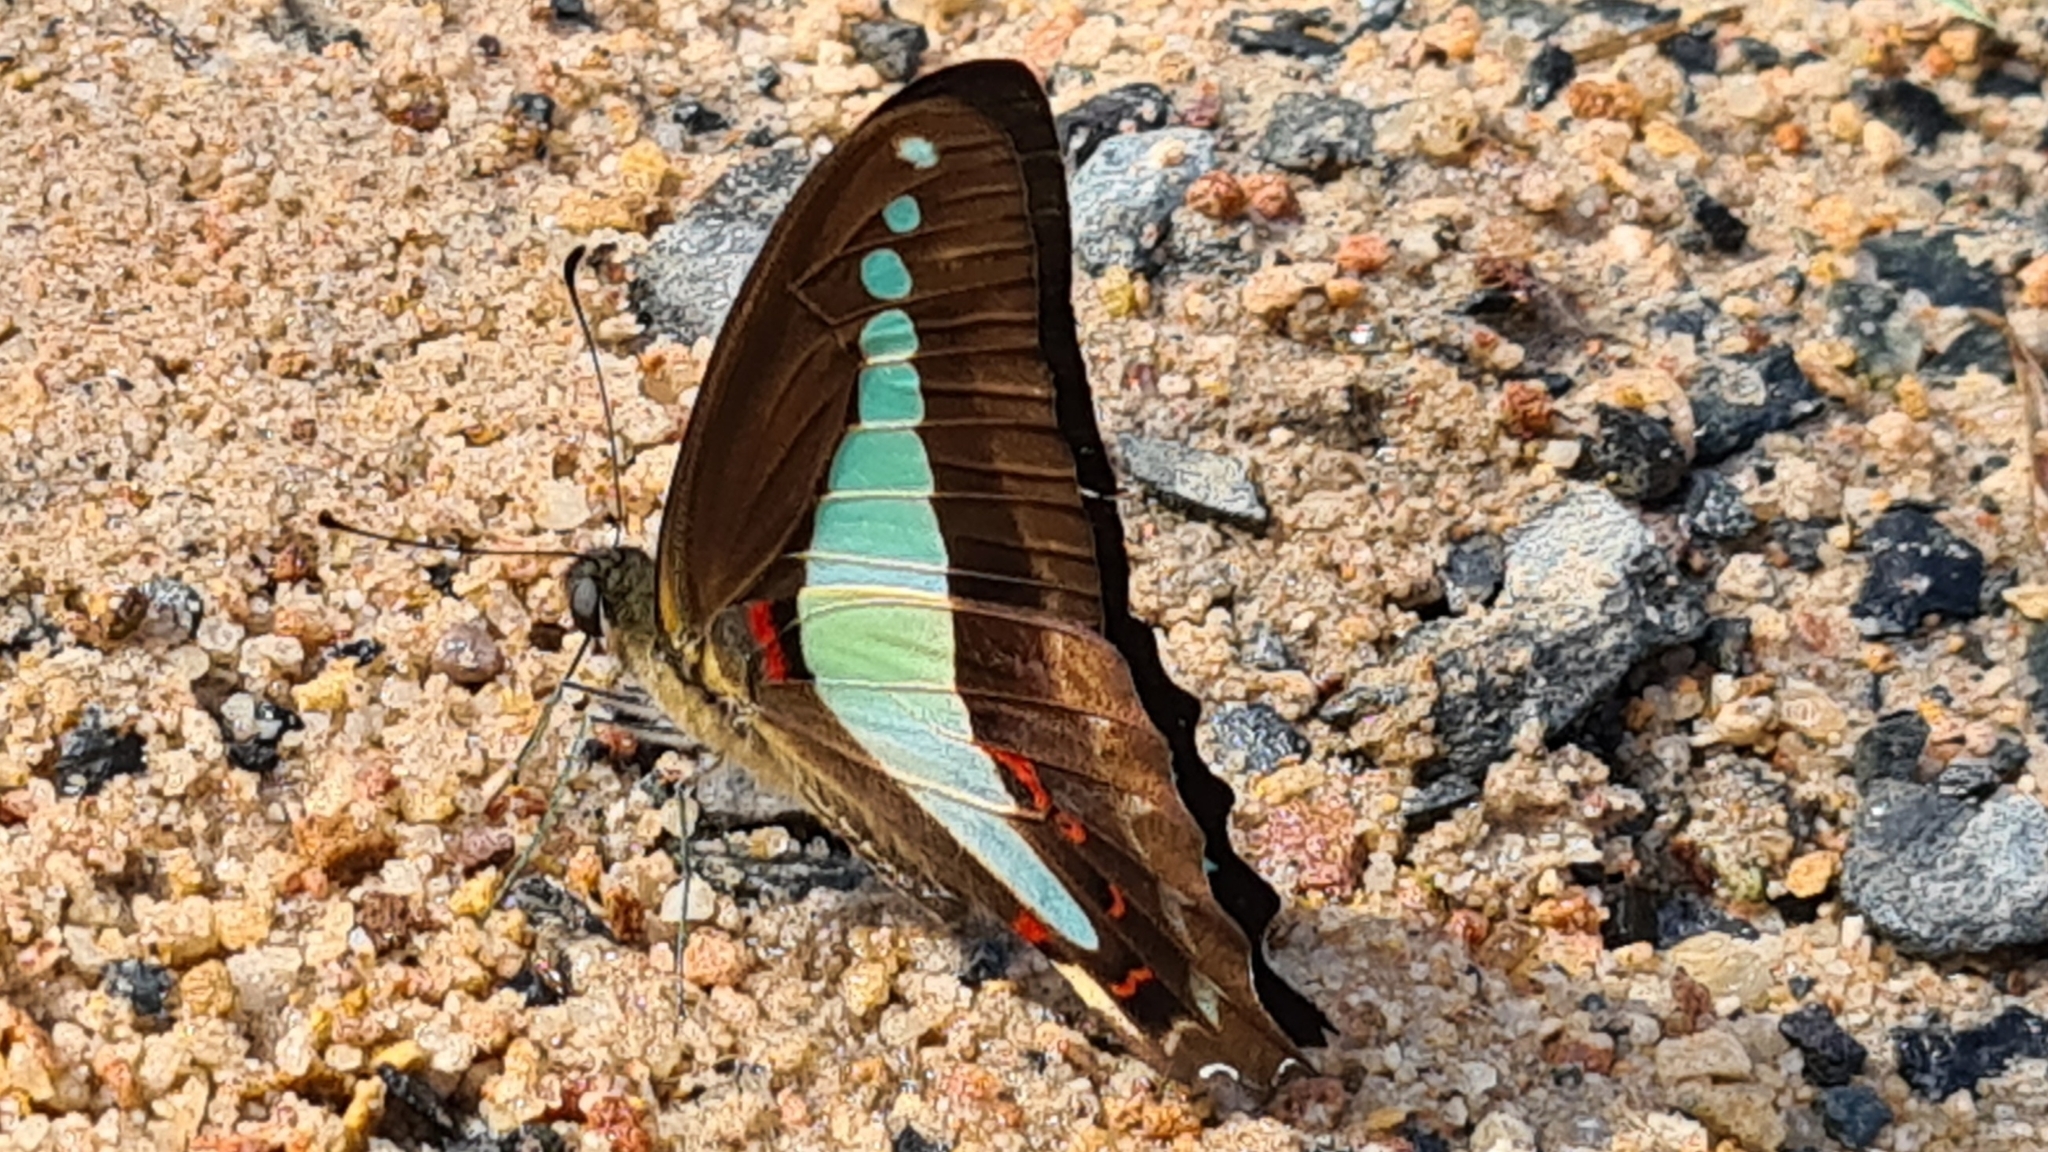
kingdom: Animalia
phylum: Arthropoda
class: Insecta
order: Lepidoptera
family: Papilionidae
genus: Graphium
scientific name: Graphium
